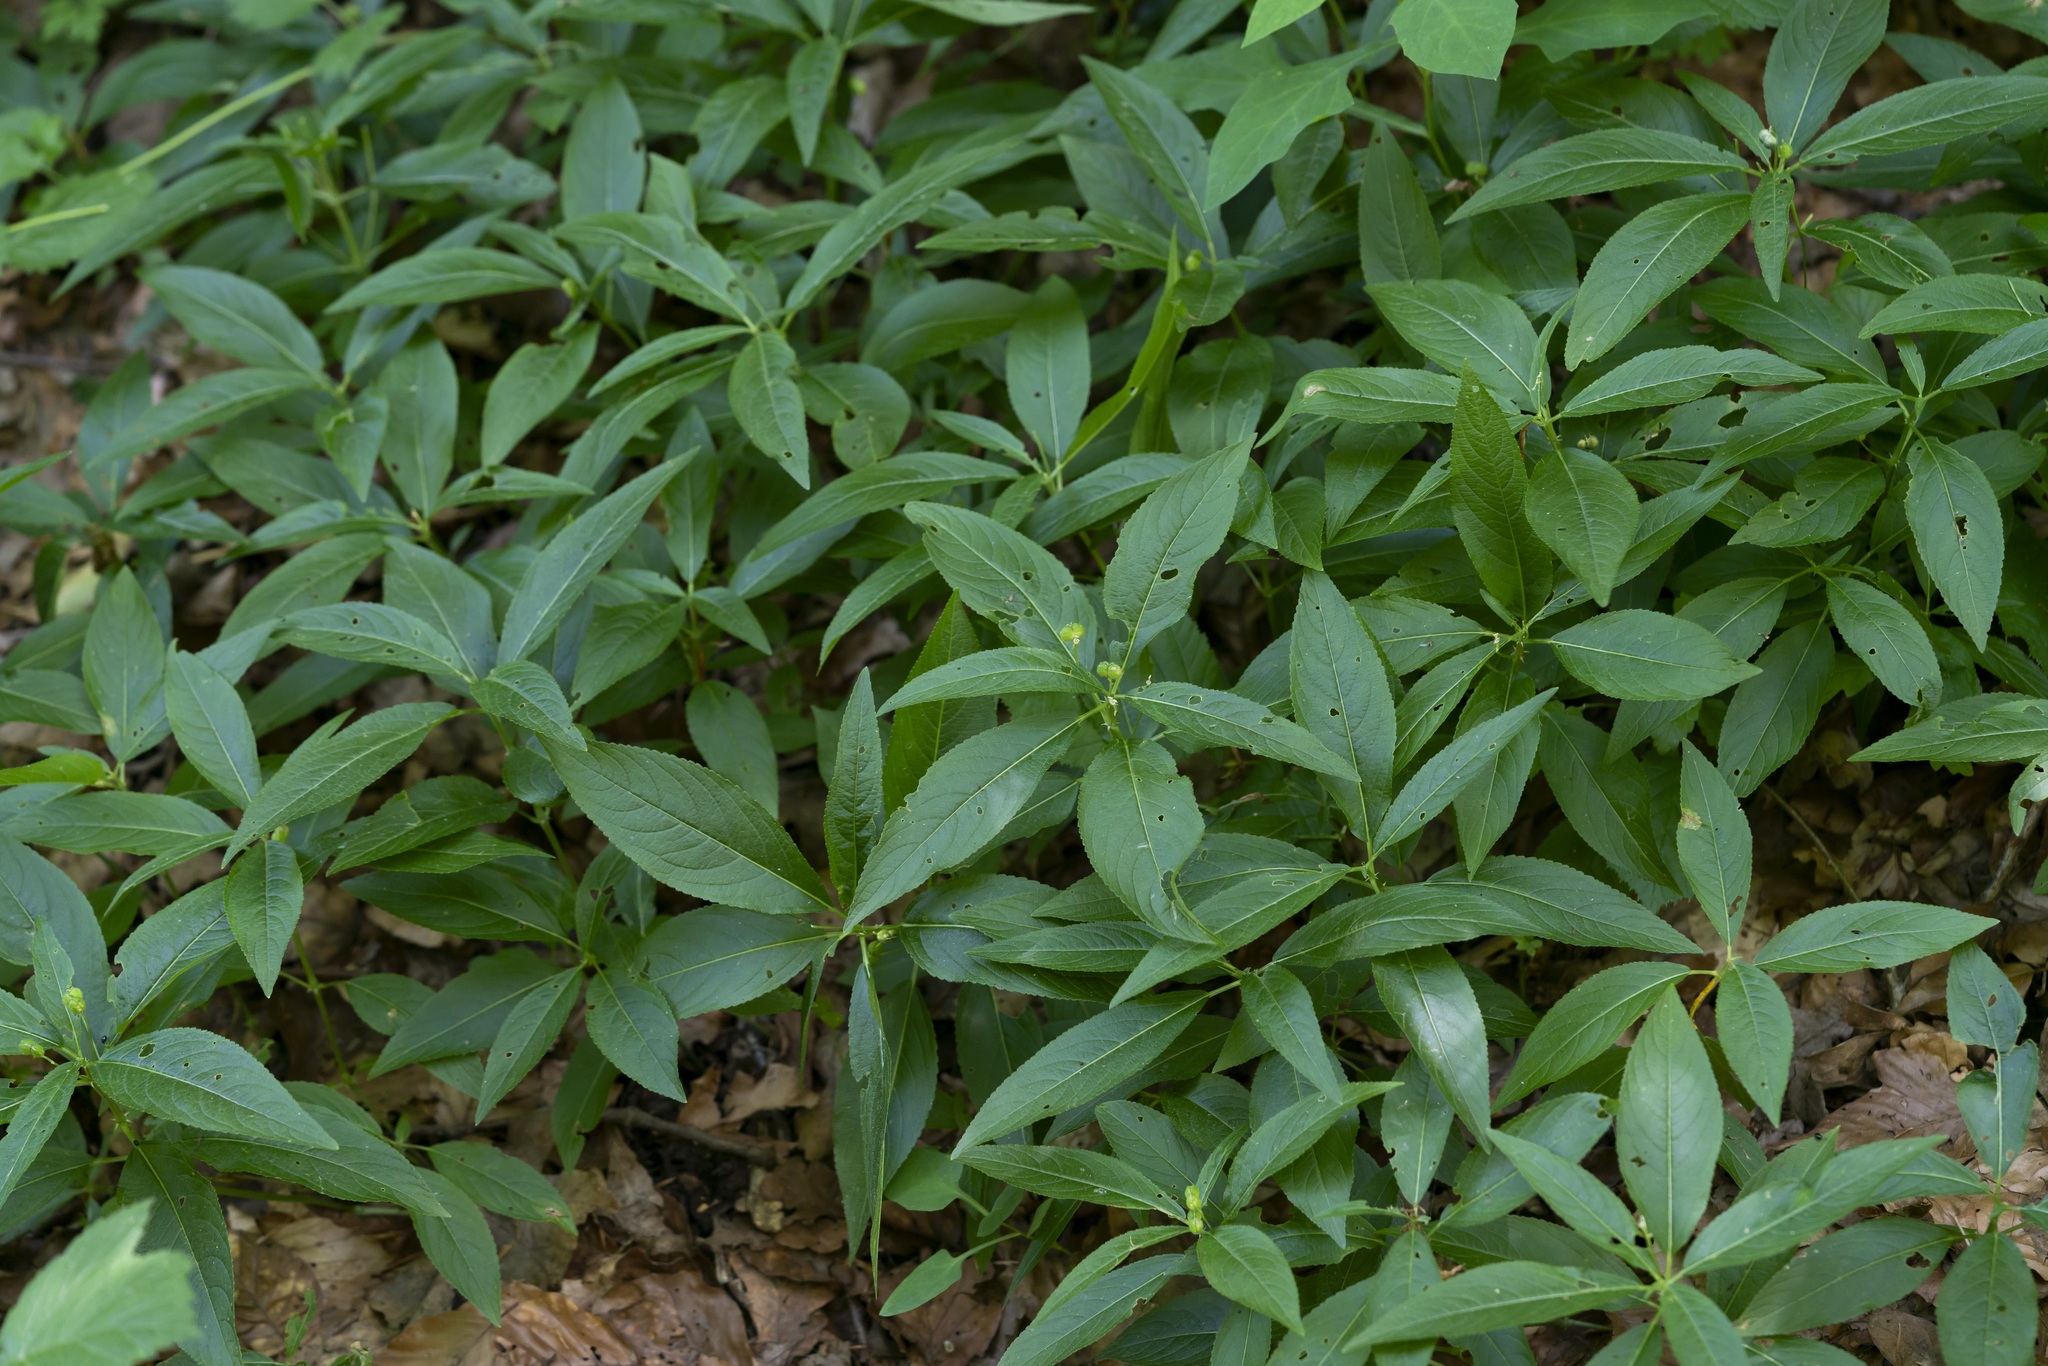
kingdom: Plantae
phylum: Tracheophyta
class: Magnoliopsida
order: Malpighiales
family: Euphorbiaceae
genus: Mercurialis
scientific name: Mercurialis perennis
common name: Dog mercury
